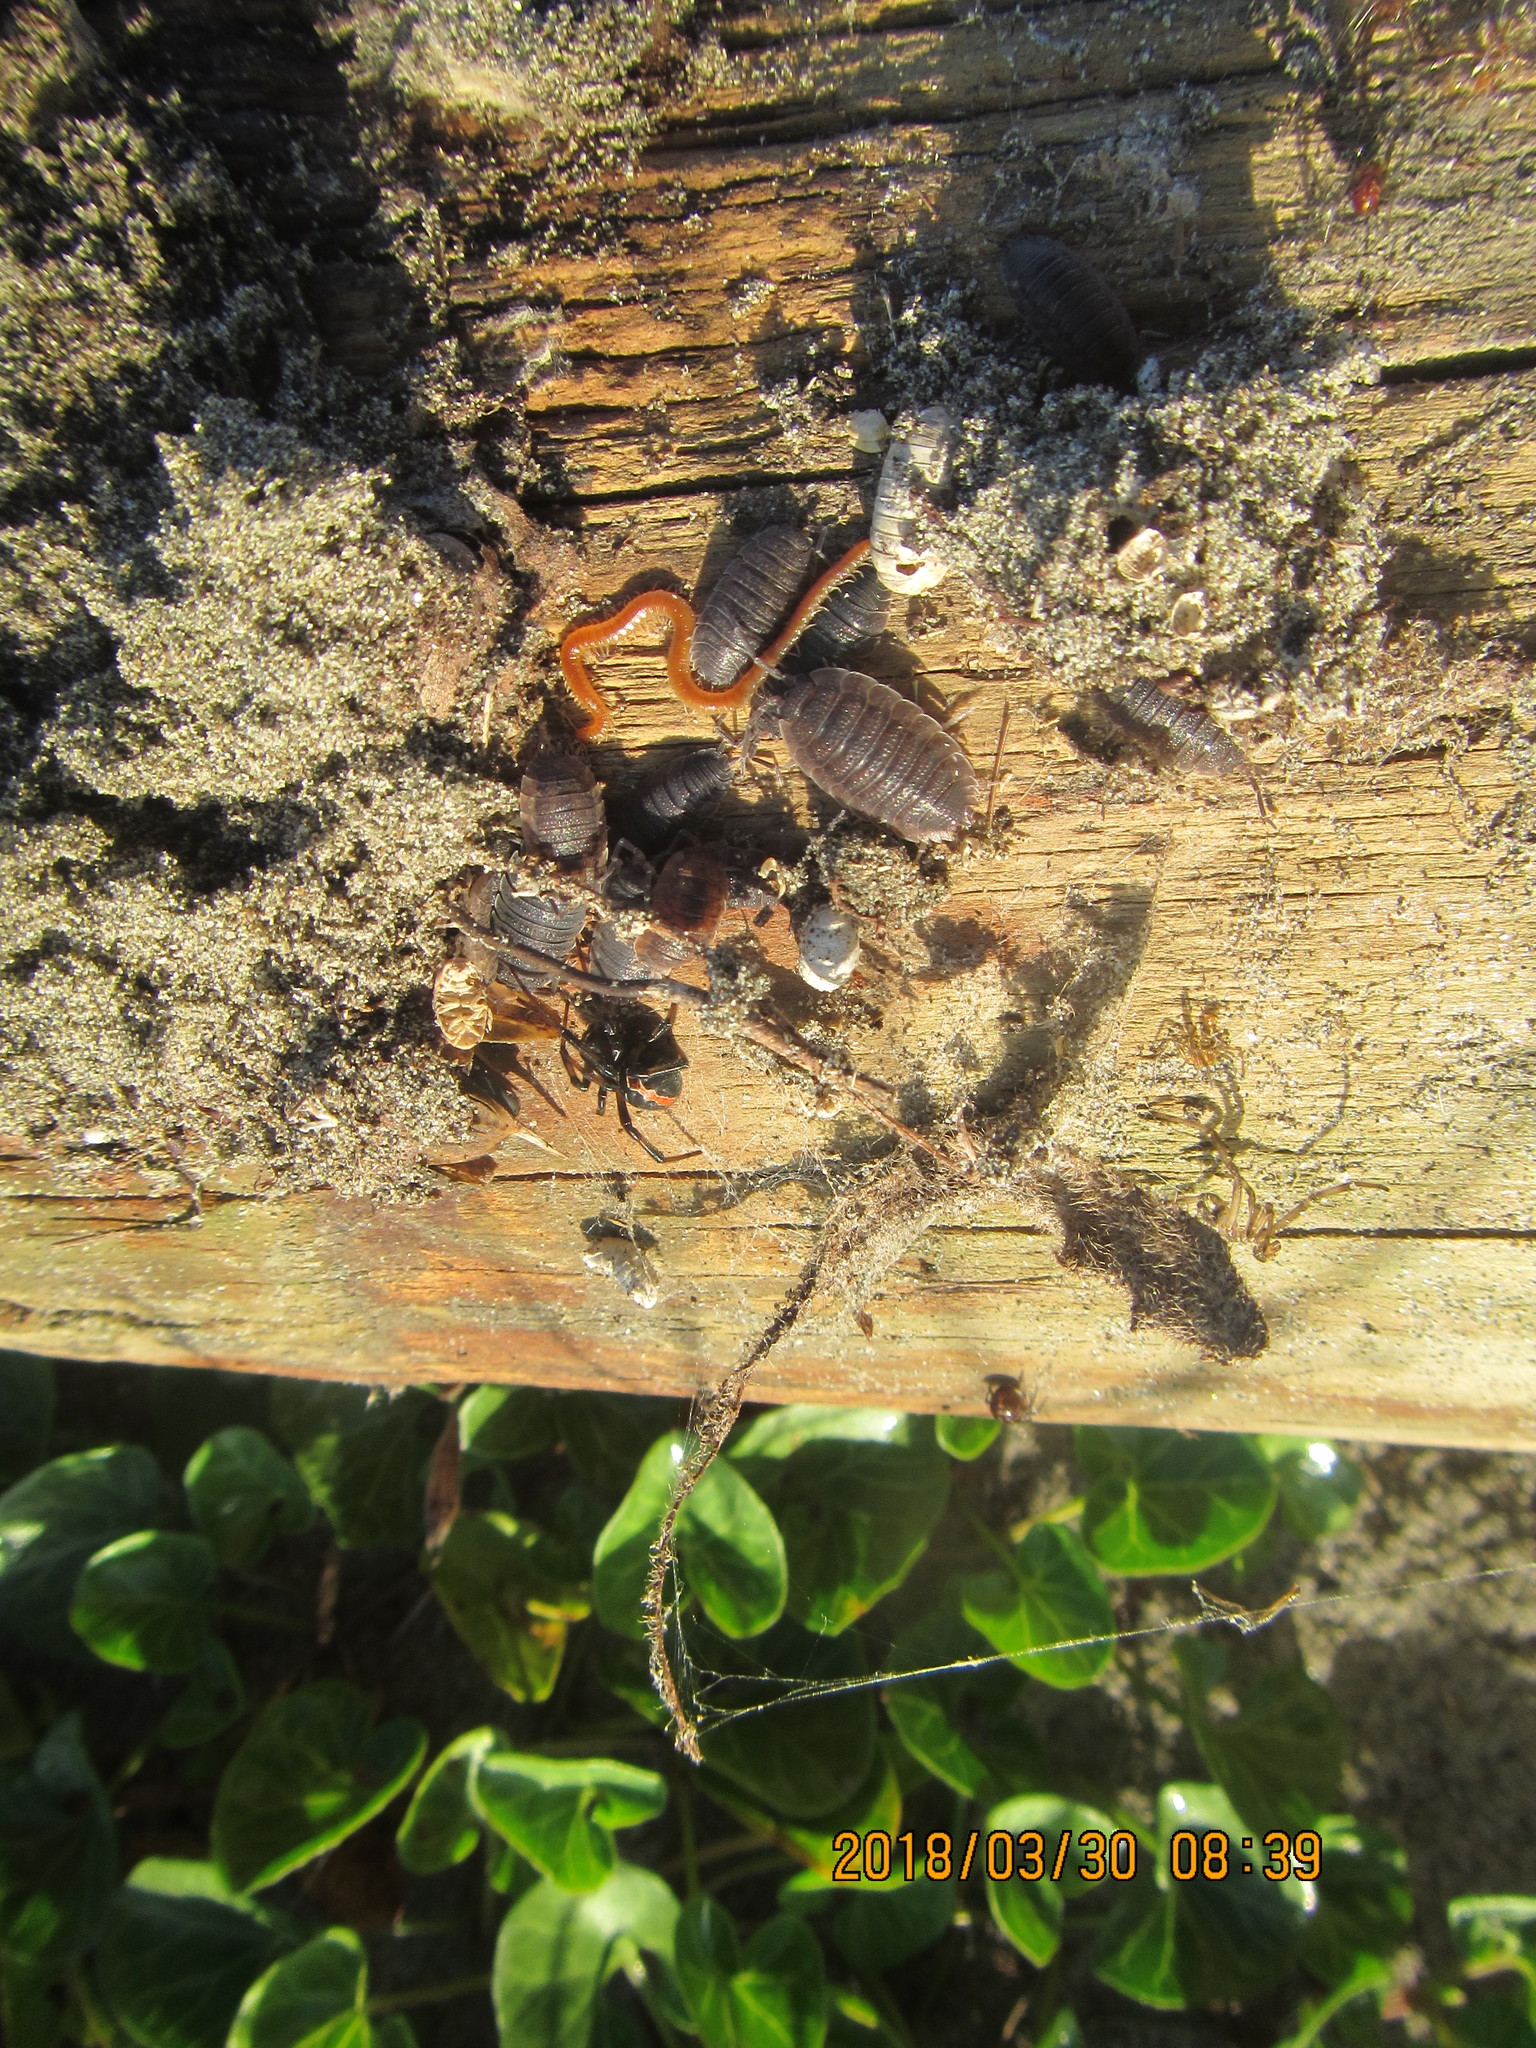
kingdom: Animalia
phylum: Arthropoda
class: Malacostraca
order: Isopoda
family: Porcellionidae
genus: Porcellio
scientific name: Porcellio scaber
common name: Common rough woodlouse
